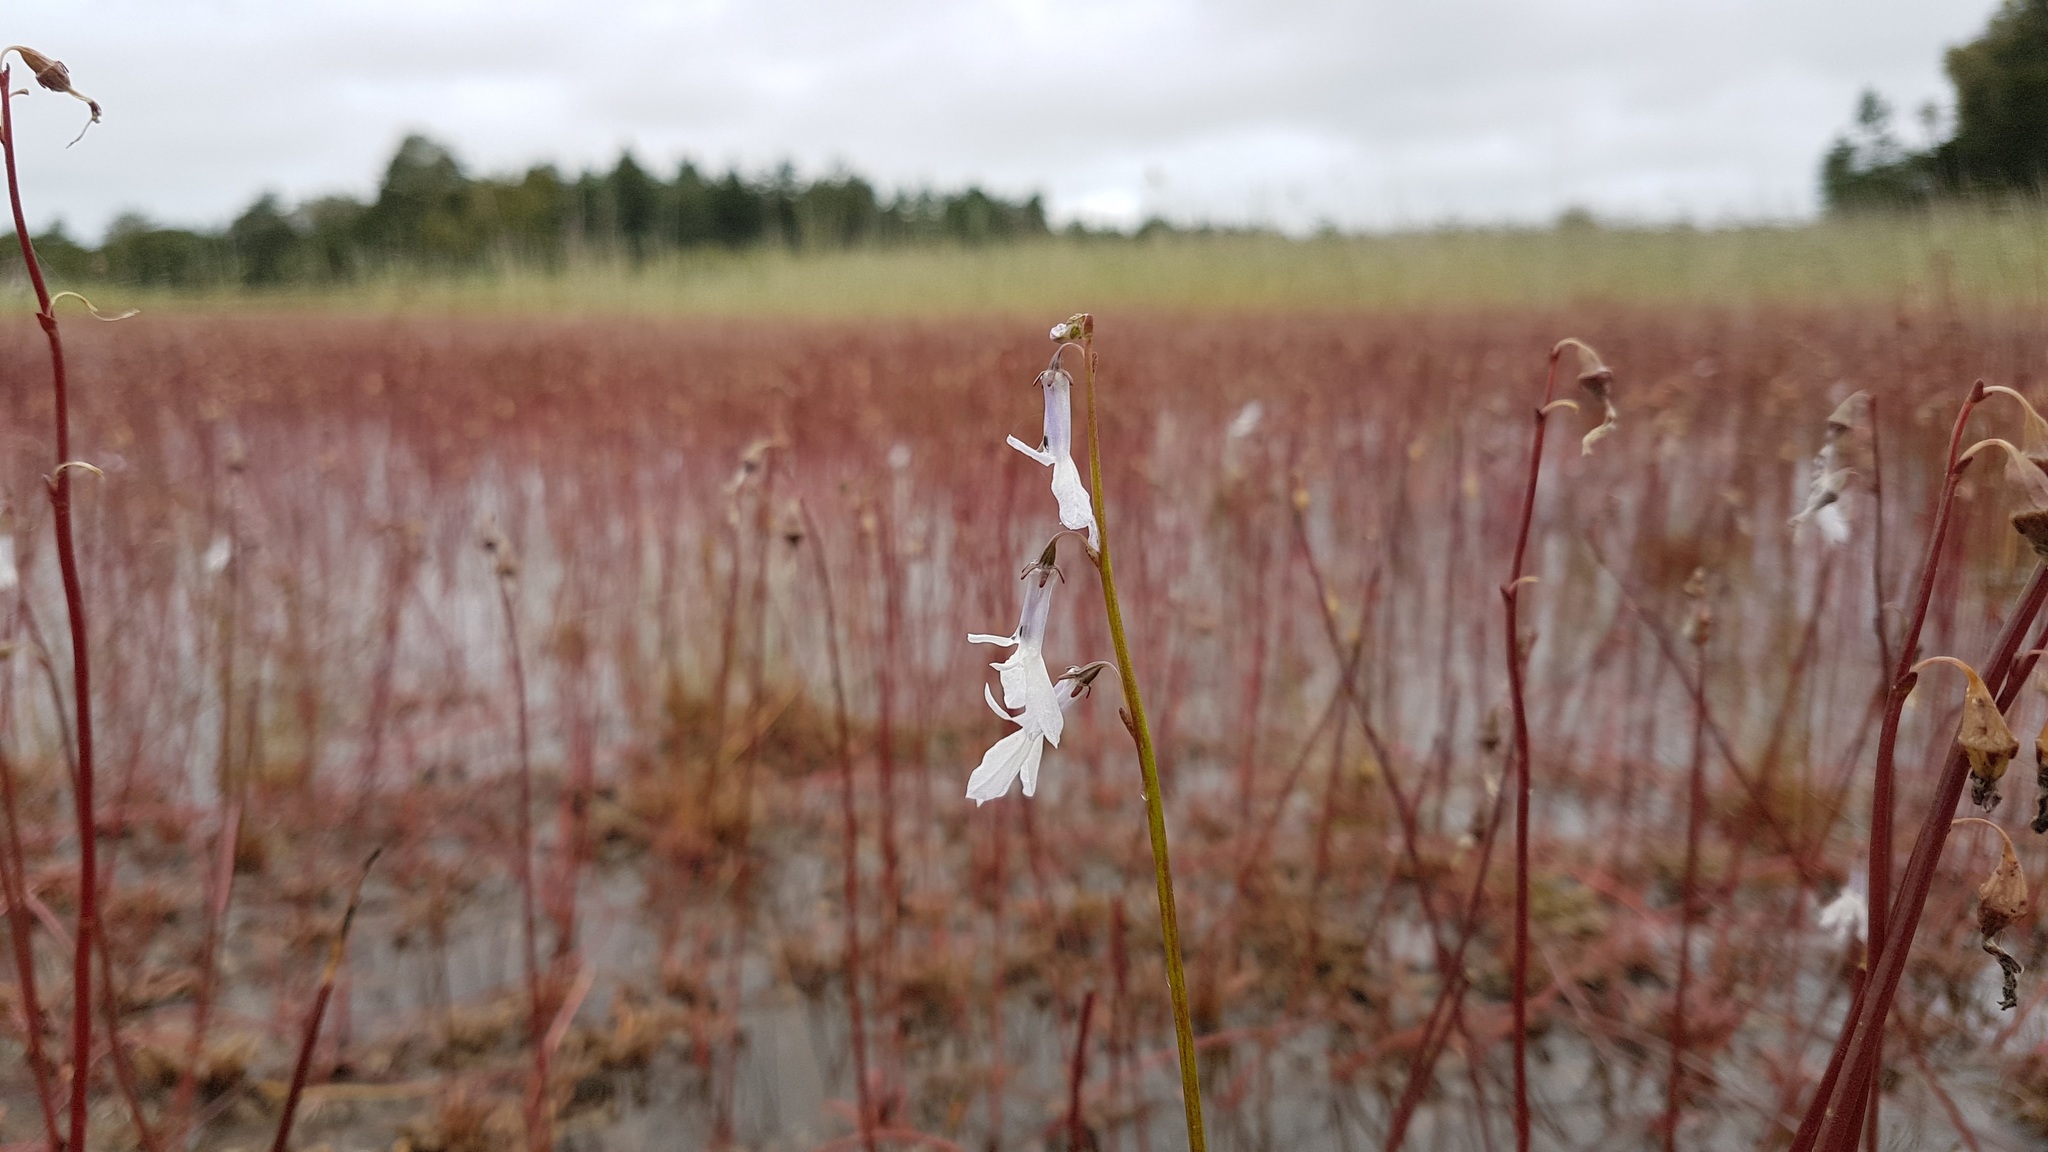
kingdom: Plantae
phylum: Tracheophyta
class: Magnoliopsida
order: Asterales
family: Campanulaceae
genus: Lobelia
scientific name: Lobelia dortmanna
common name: Water lobelia
